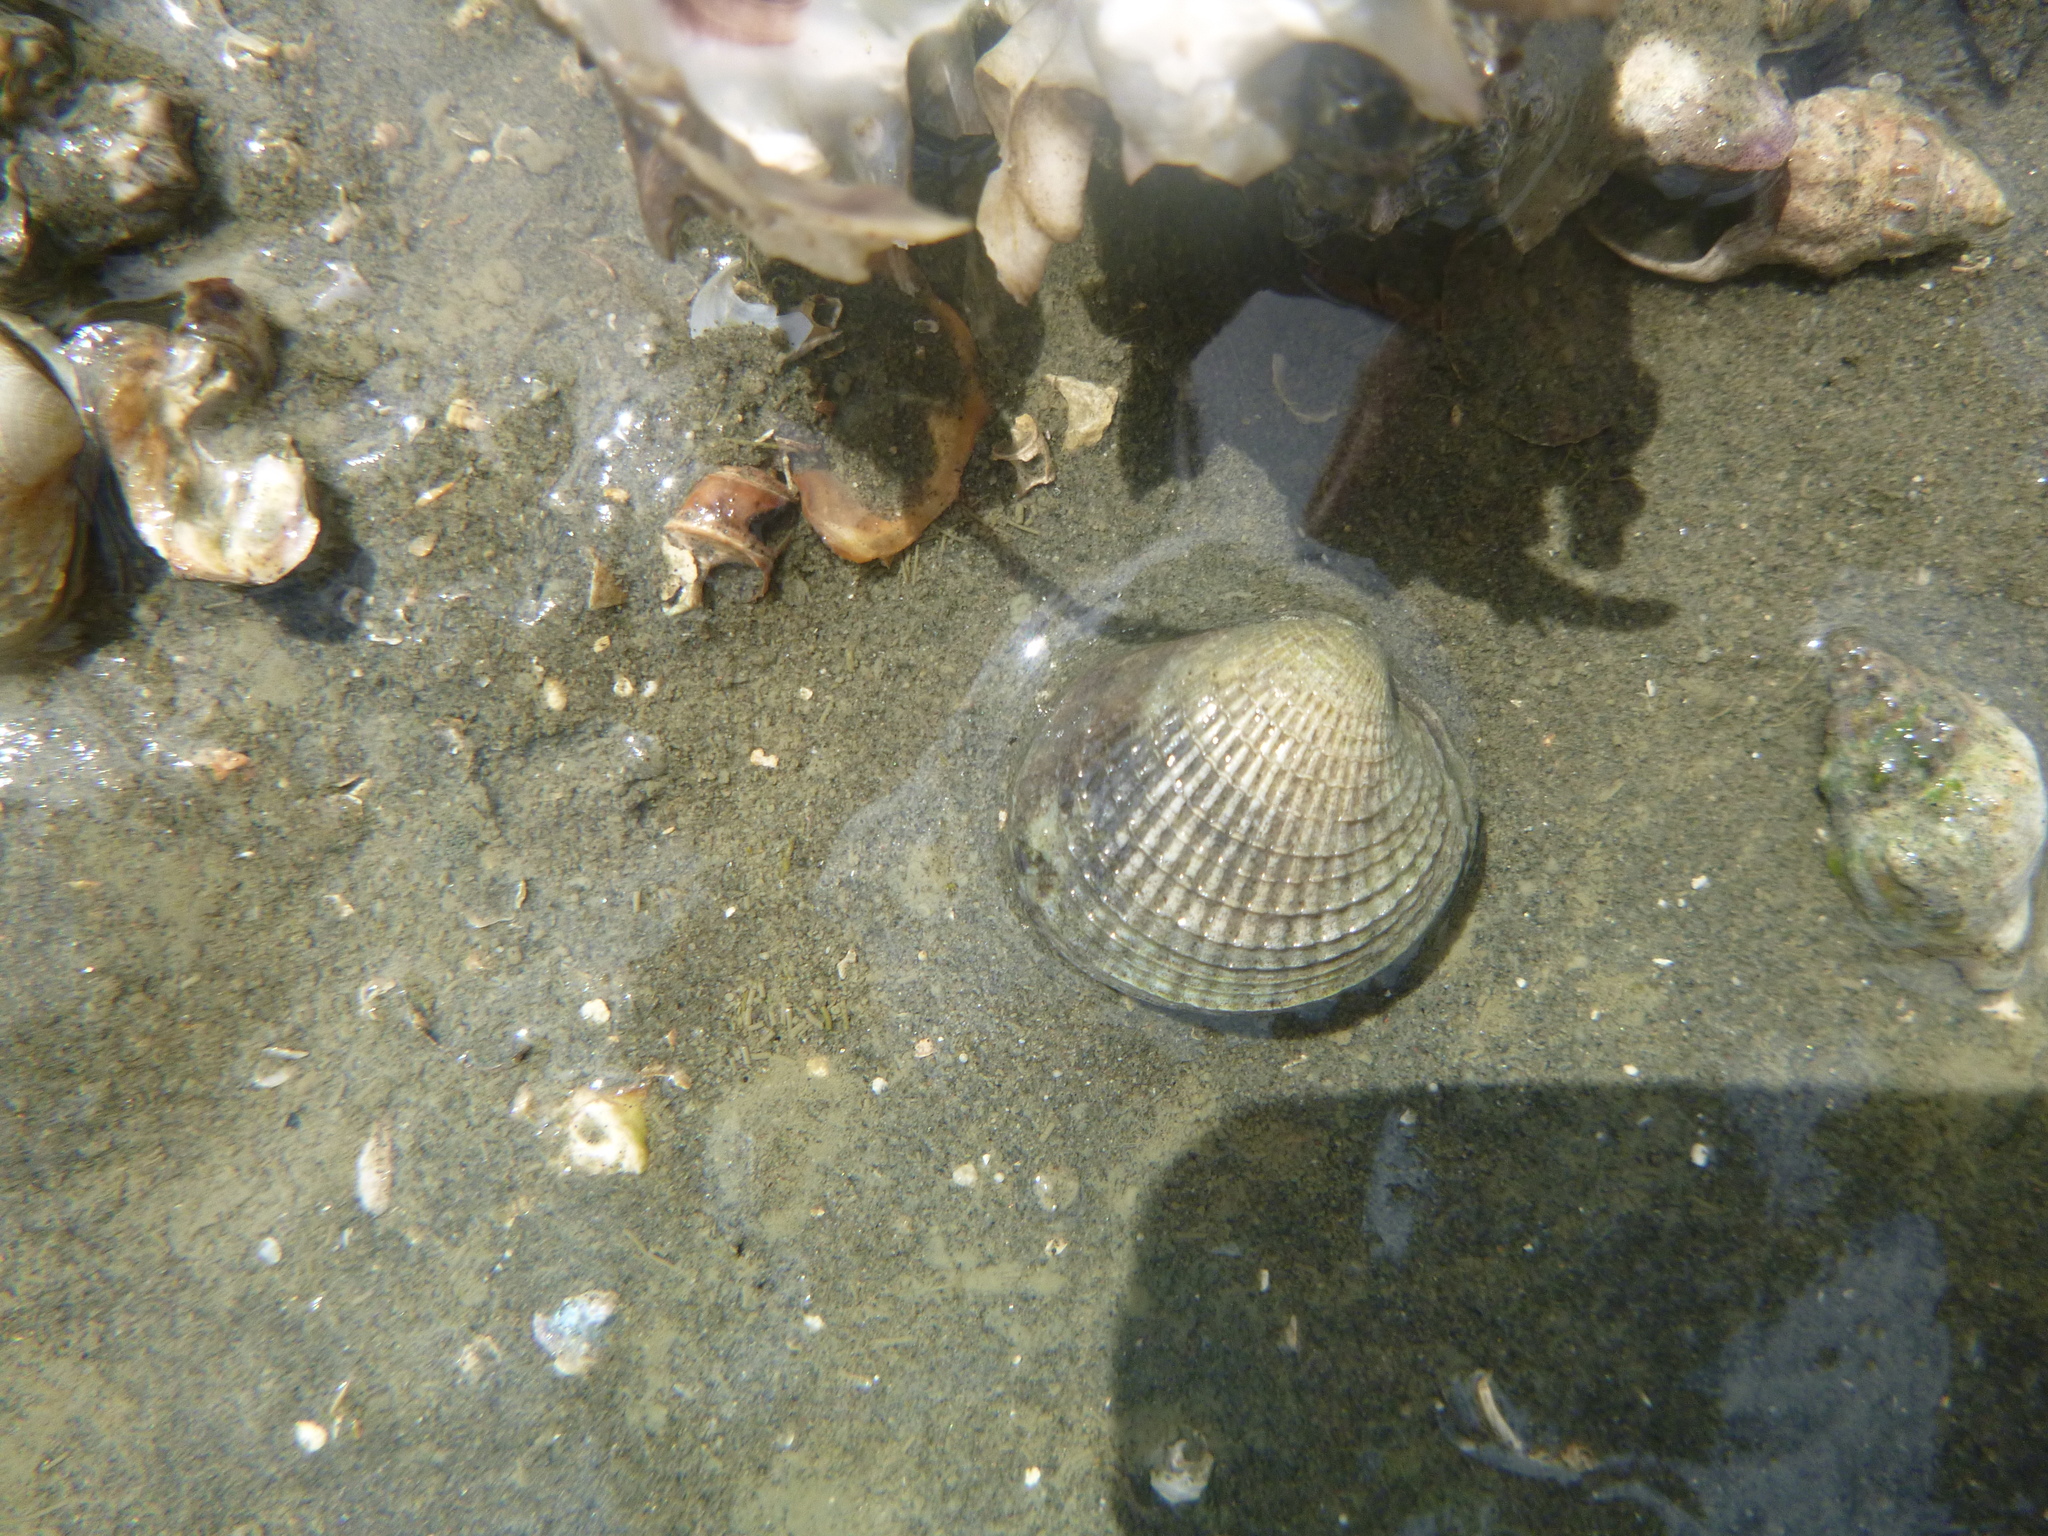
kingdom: Animalia
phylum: Mollusca
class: Bivalvia
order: Venerida
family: Veneridae
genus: Austrovenus
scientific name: Austrovenus stutchburyi
